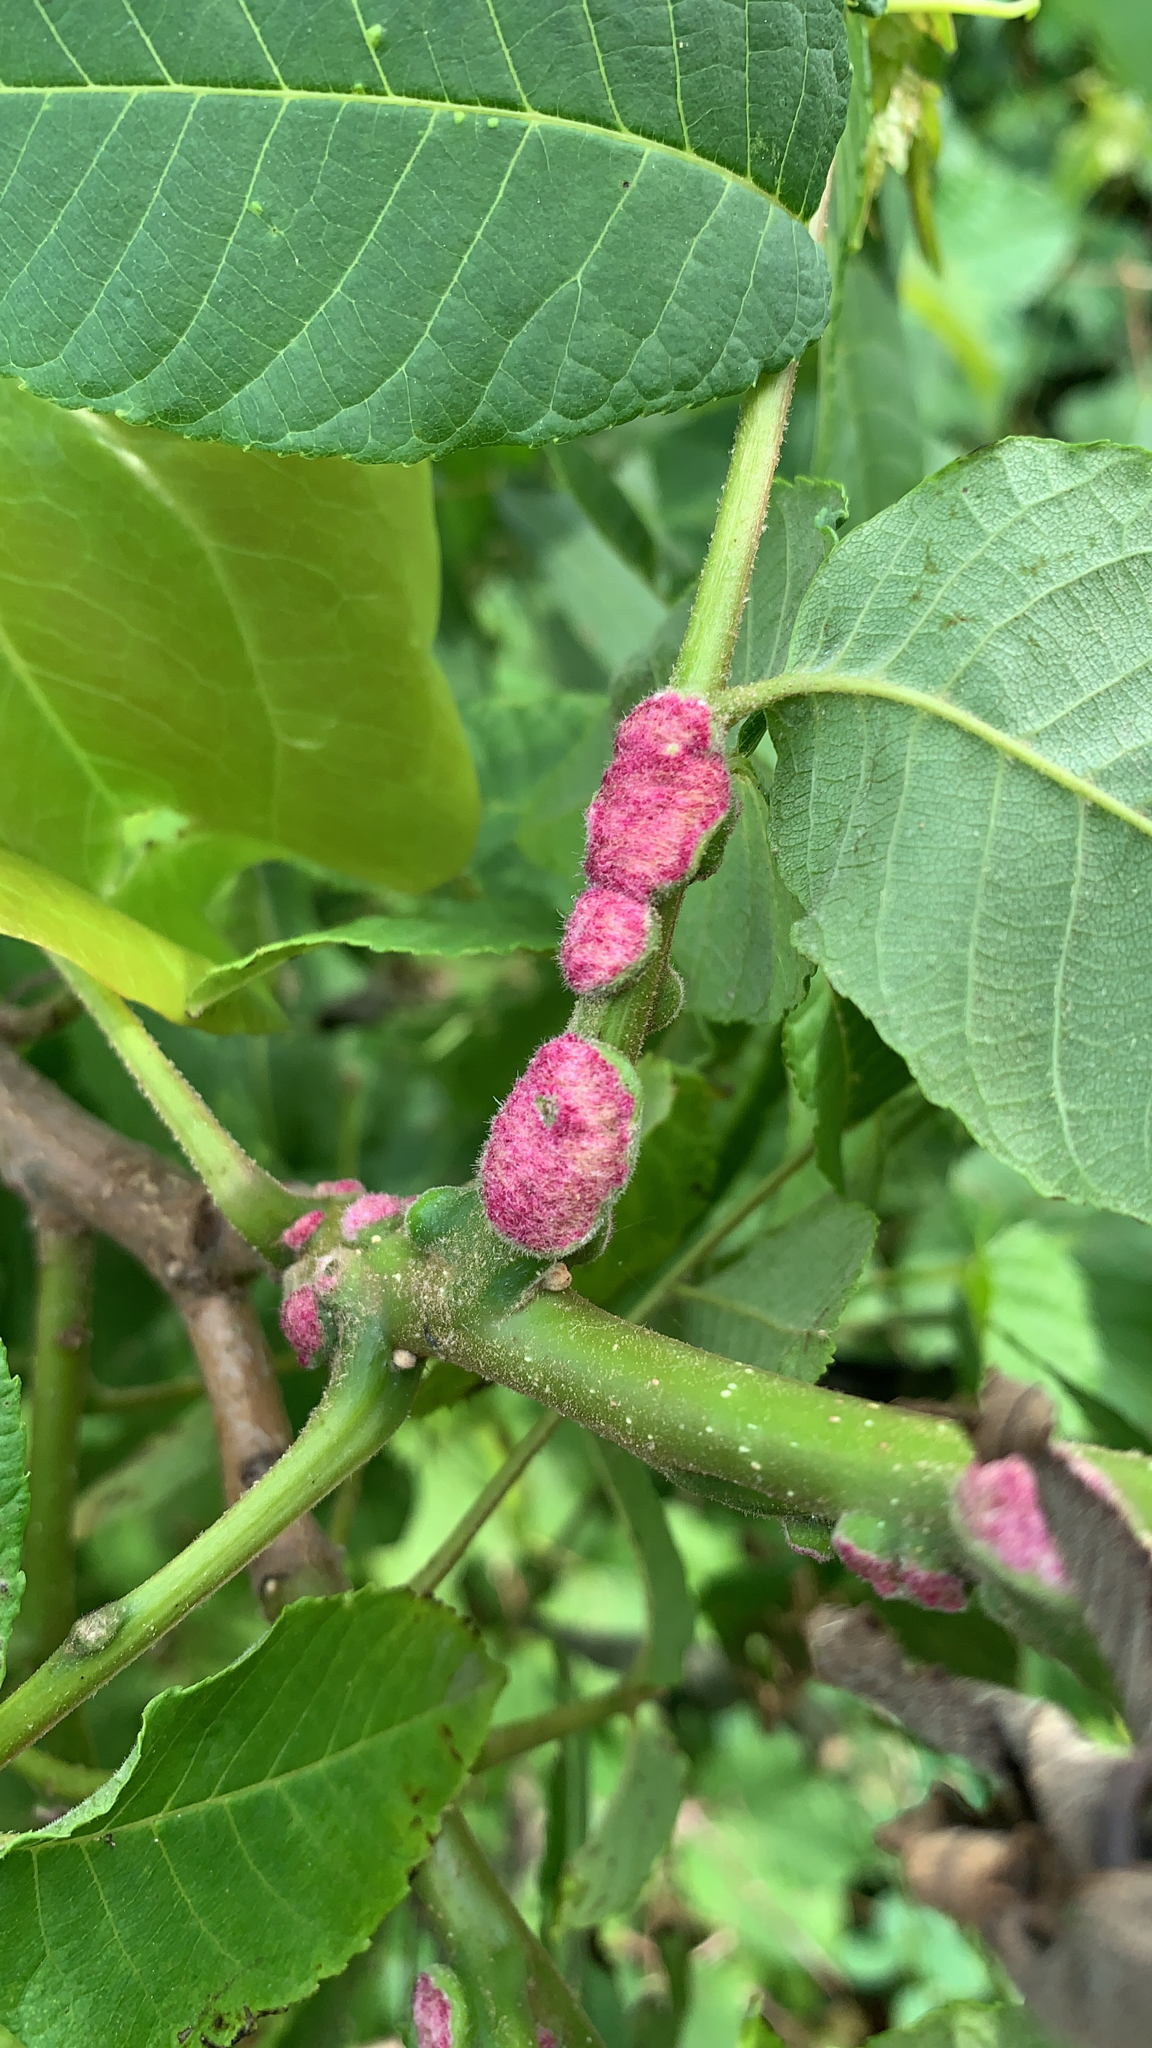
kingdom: Animalia
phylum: Arthropoda
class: Arachnida
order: Trombidiformes
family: Eriophyidae
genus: Aceria
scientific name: Aceria
